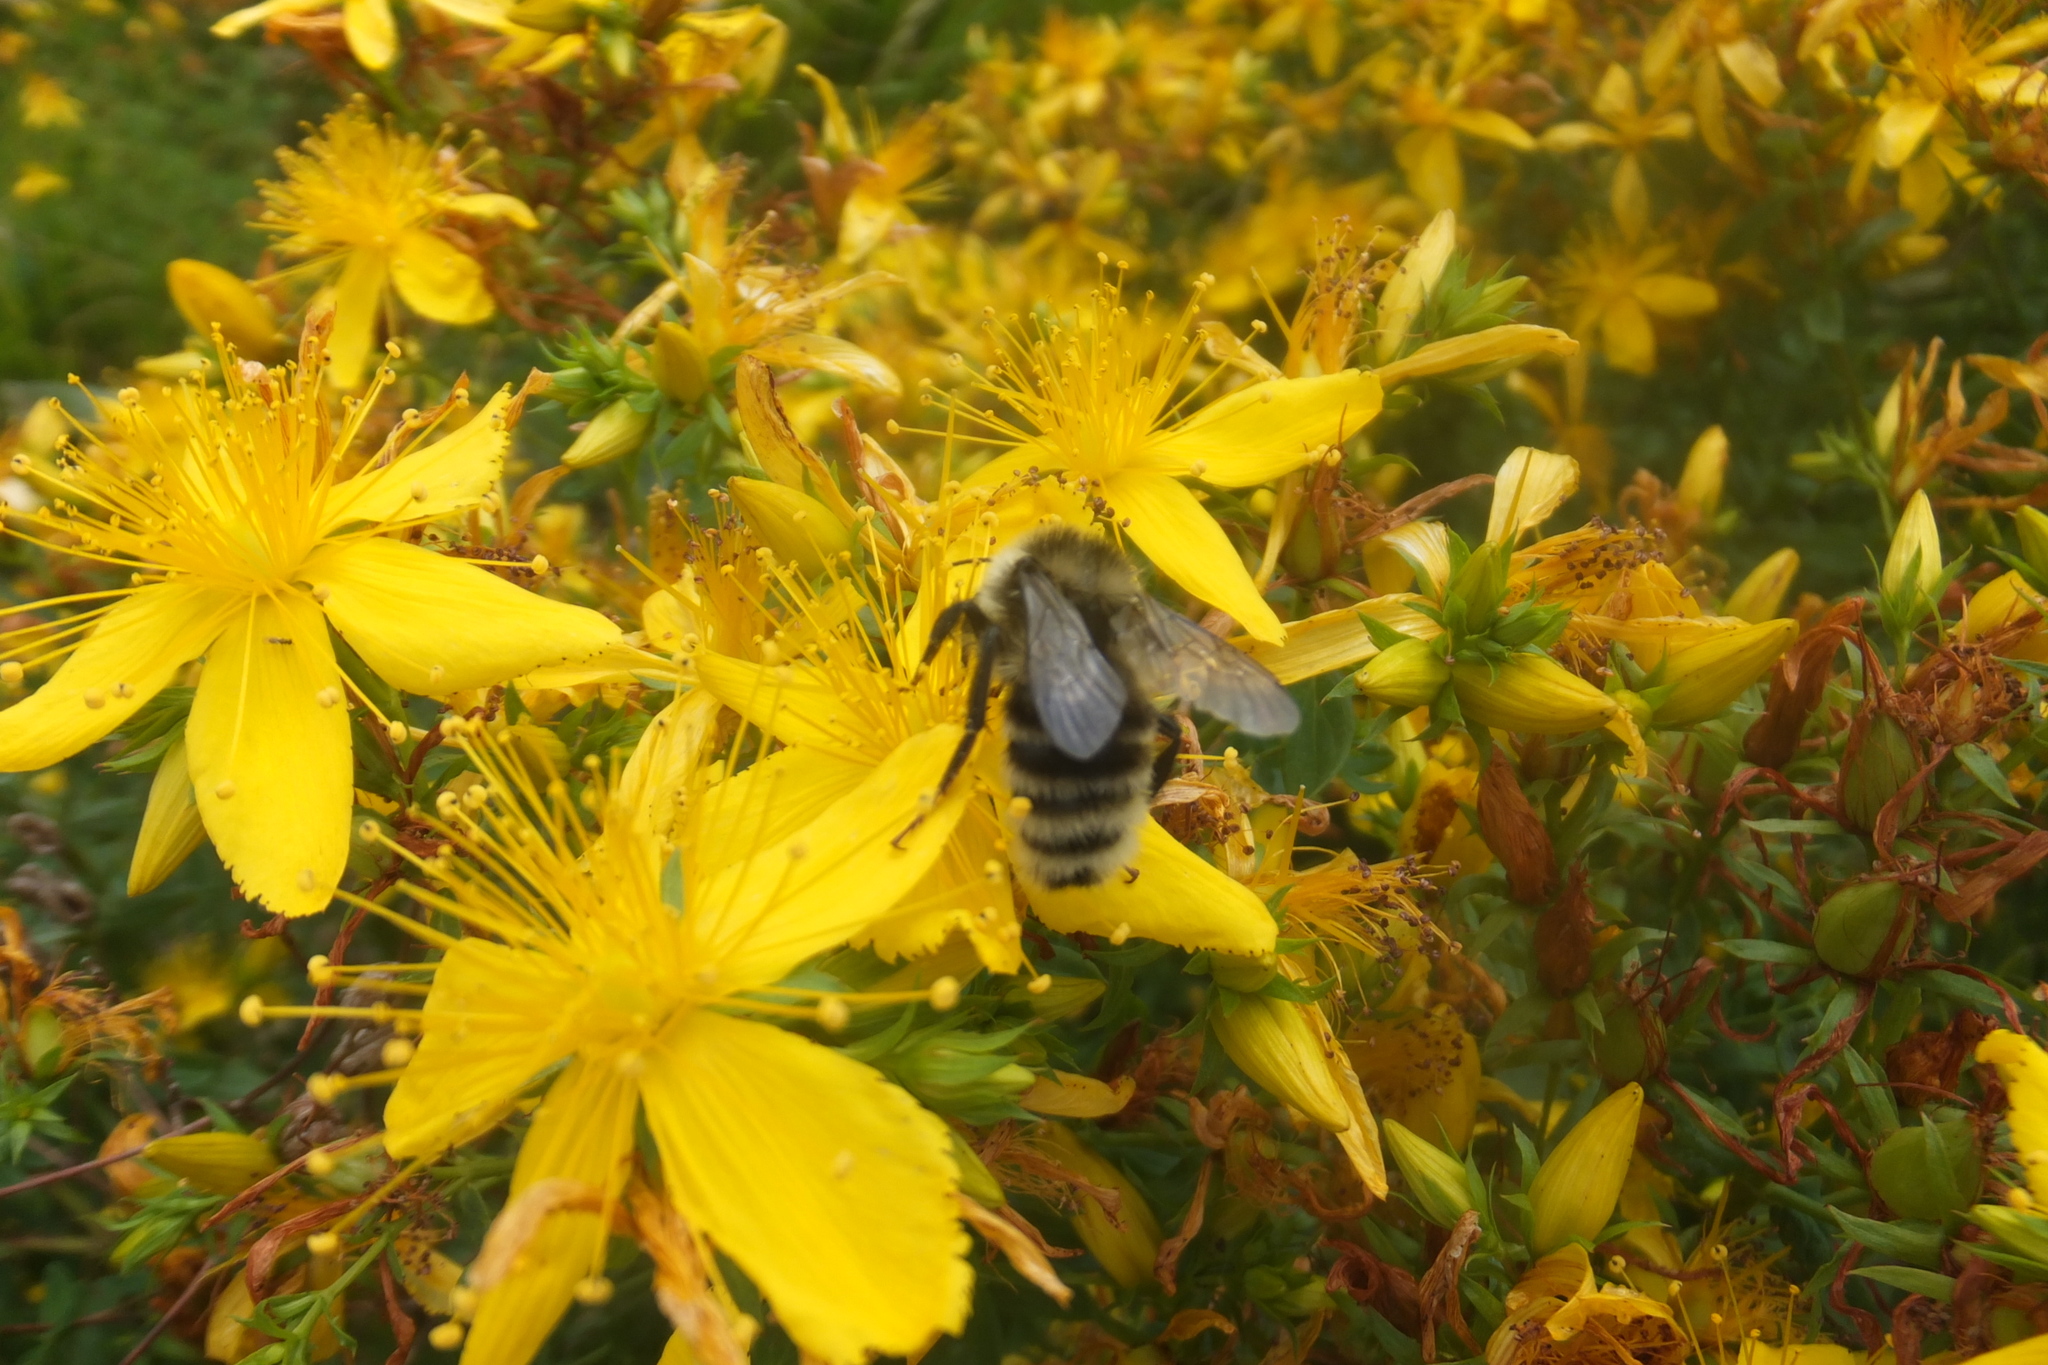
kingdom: Animalia
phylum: Arthropoda
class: Insecta
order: Hymenoptera
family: Apidae
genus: Bombus
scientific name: Bombus subterraneus
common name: Short-haired humble-bee
